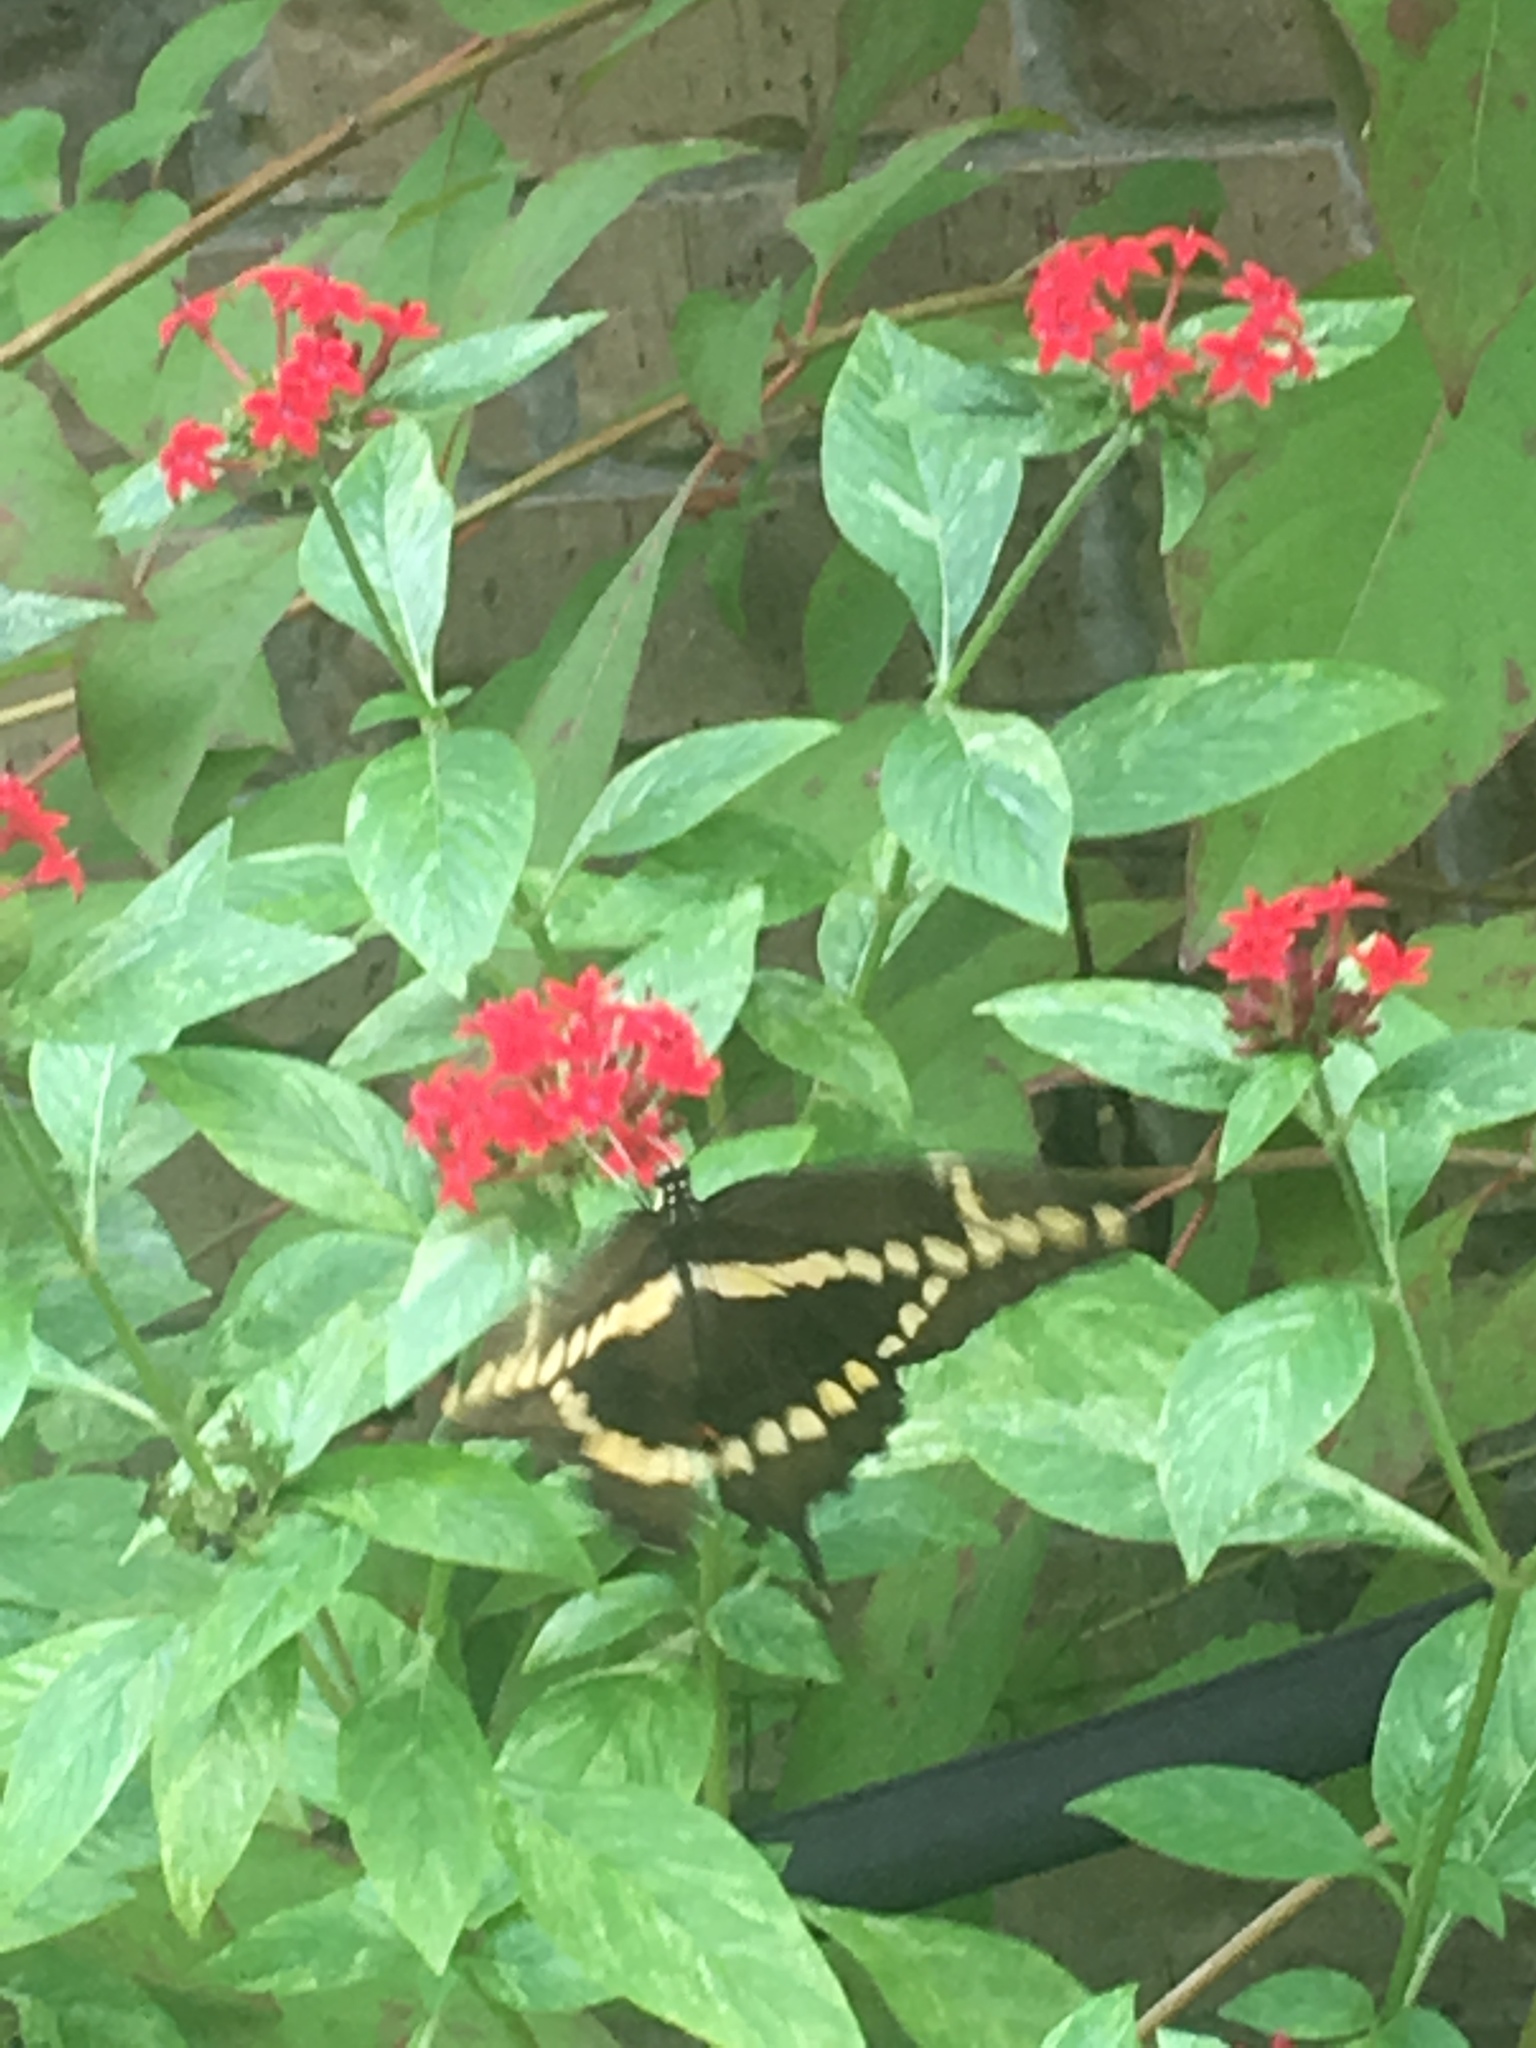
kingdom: Animalia
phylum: Arthropoda
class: Insecta
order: Lepidoptera
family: Papilionidae
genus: Papilio
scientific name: Papilio cresphontes
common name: Giant swallowtail
